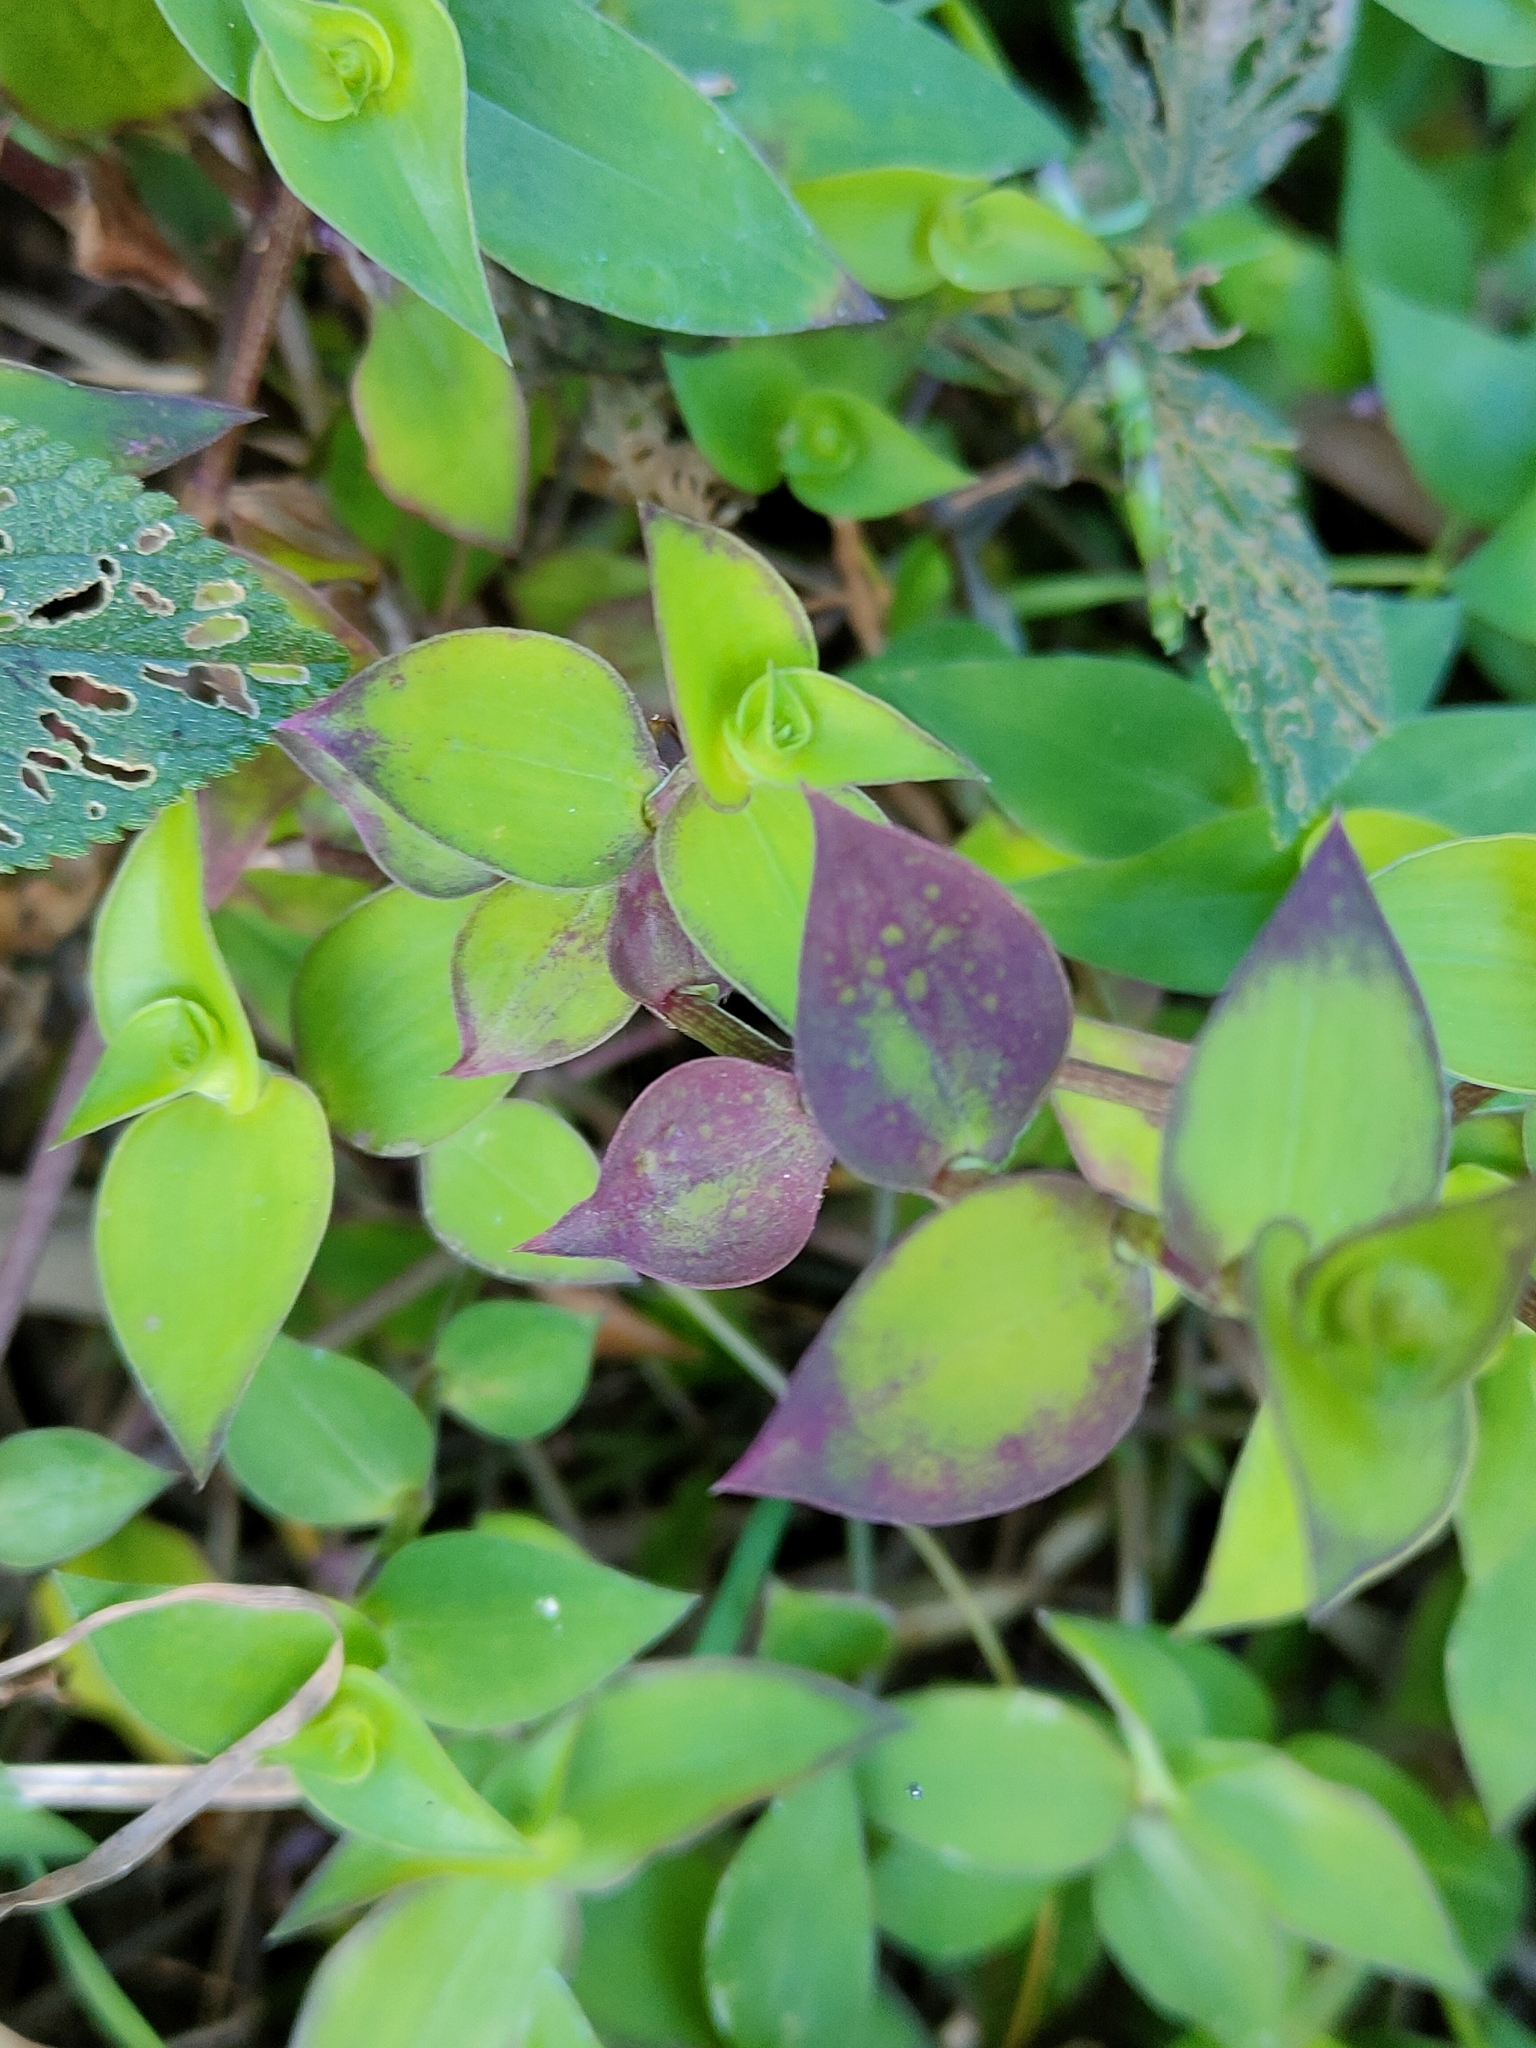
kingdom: Plantae
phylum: Tracheophyta
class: Liliopsida
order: Commelinales
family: Commelinaceae
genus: Callisia
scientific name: Callisia repens
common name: Creeping inchplant
